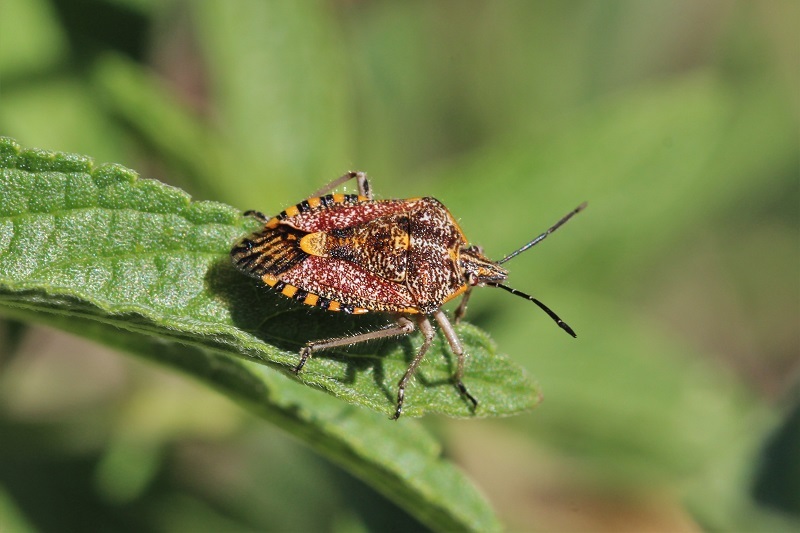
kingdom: Animalia
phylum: Arthropoda
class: Insecta
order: Hemiptera
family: Pentatomidae
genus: Agonoscelis
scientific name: Agonoscelis versicoloratus
